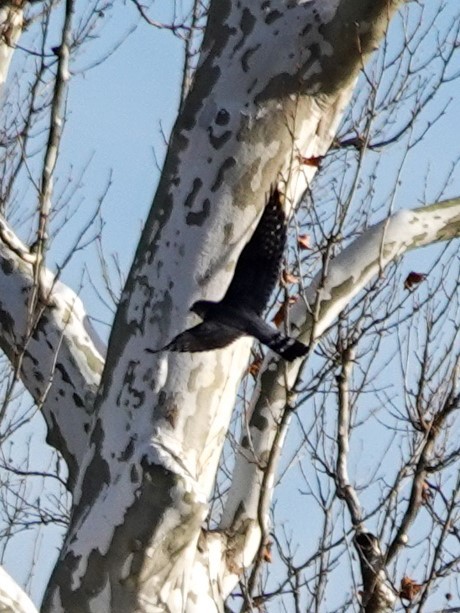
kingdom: Animalia
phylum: Chordata
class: Aves
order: Falconiformes
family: Falconidae
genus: Falco
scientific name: Falco columbarius
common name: Merlin
